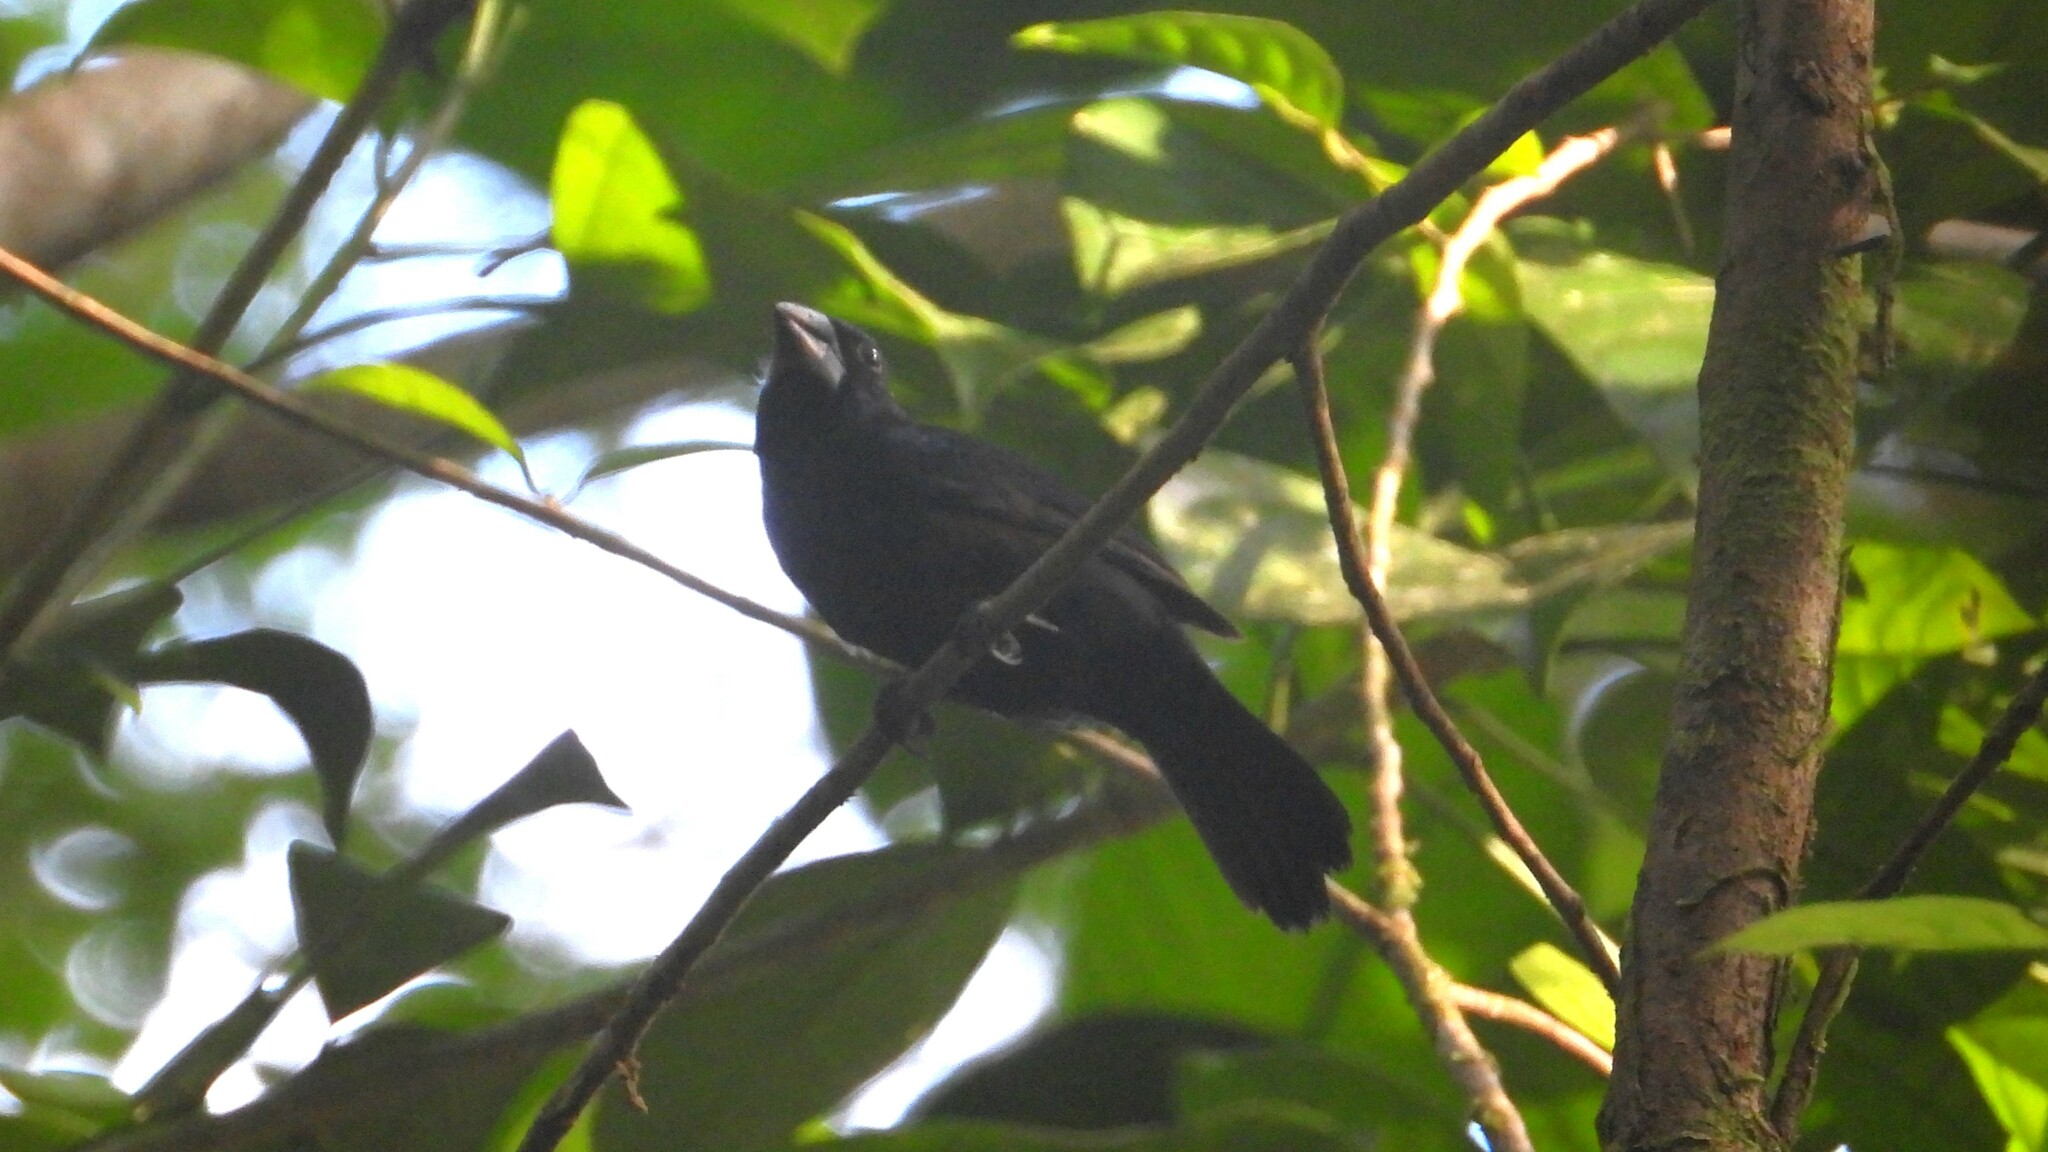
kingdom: Animalia
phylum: Chordata
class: Aves
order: Passeriformes
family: Cardinalidae
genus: Cyanocompsa
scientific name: Cyanocompsa cyanoides
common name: Blue-black grosbeak
